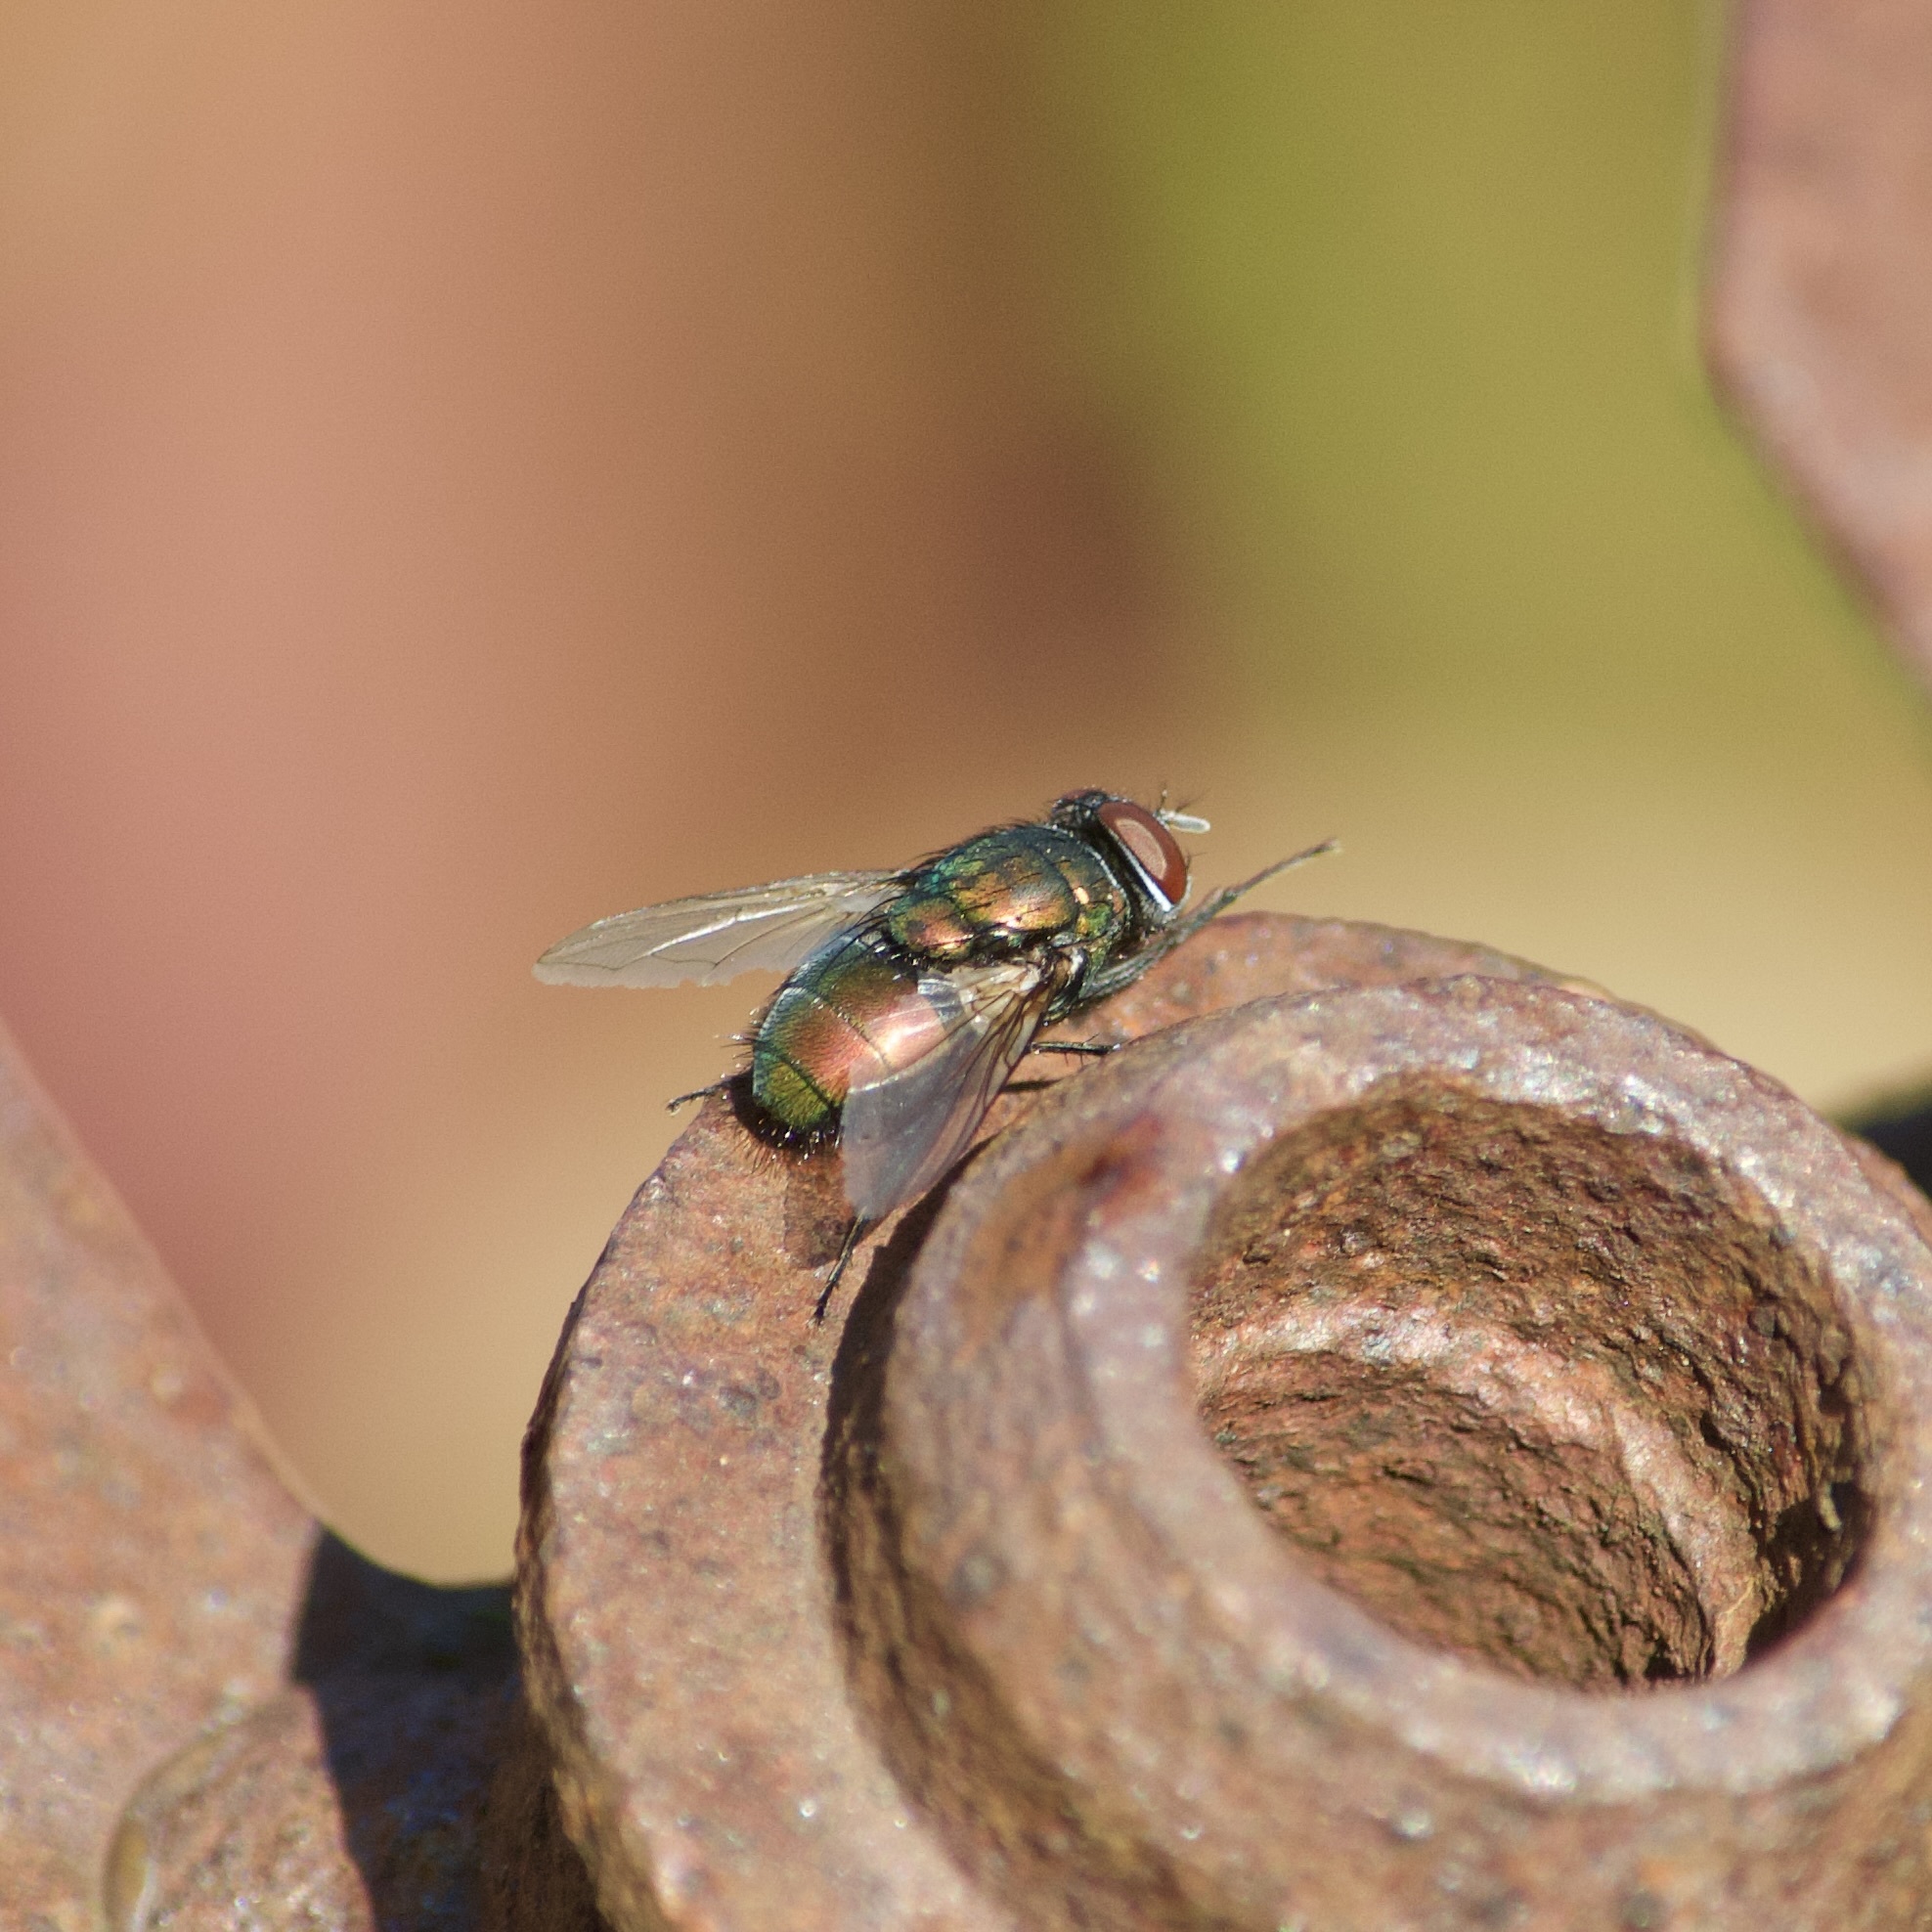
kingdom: Animalia
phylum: Arthropoda
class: Insecta
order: Diptera
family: Calliphoridae
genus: Lucilia
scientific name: Lucilia sericata
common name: Blow fly
